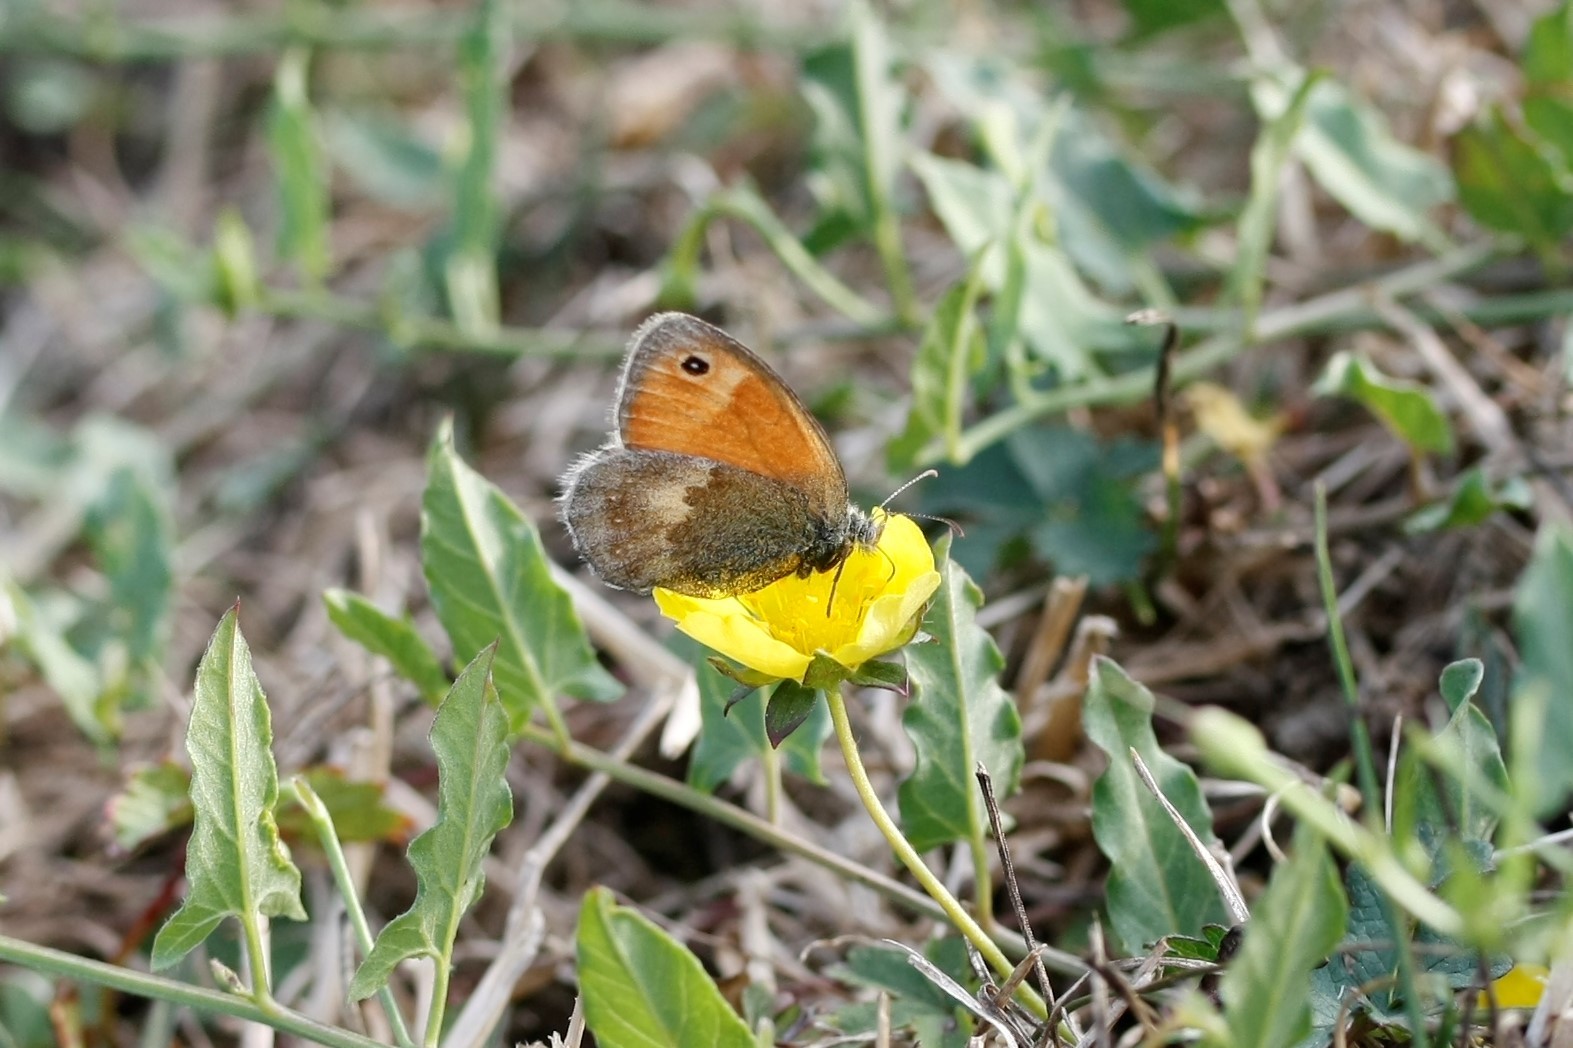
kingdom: Animalia
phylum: Arthropoda
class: Insecta
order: Lepidoptera
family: Nymphalidae
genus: Coenonympha
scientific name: Coenonympha pamphilus
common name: Small heath
